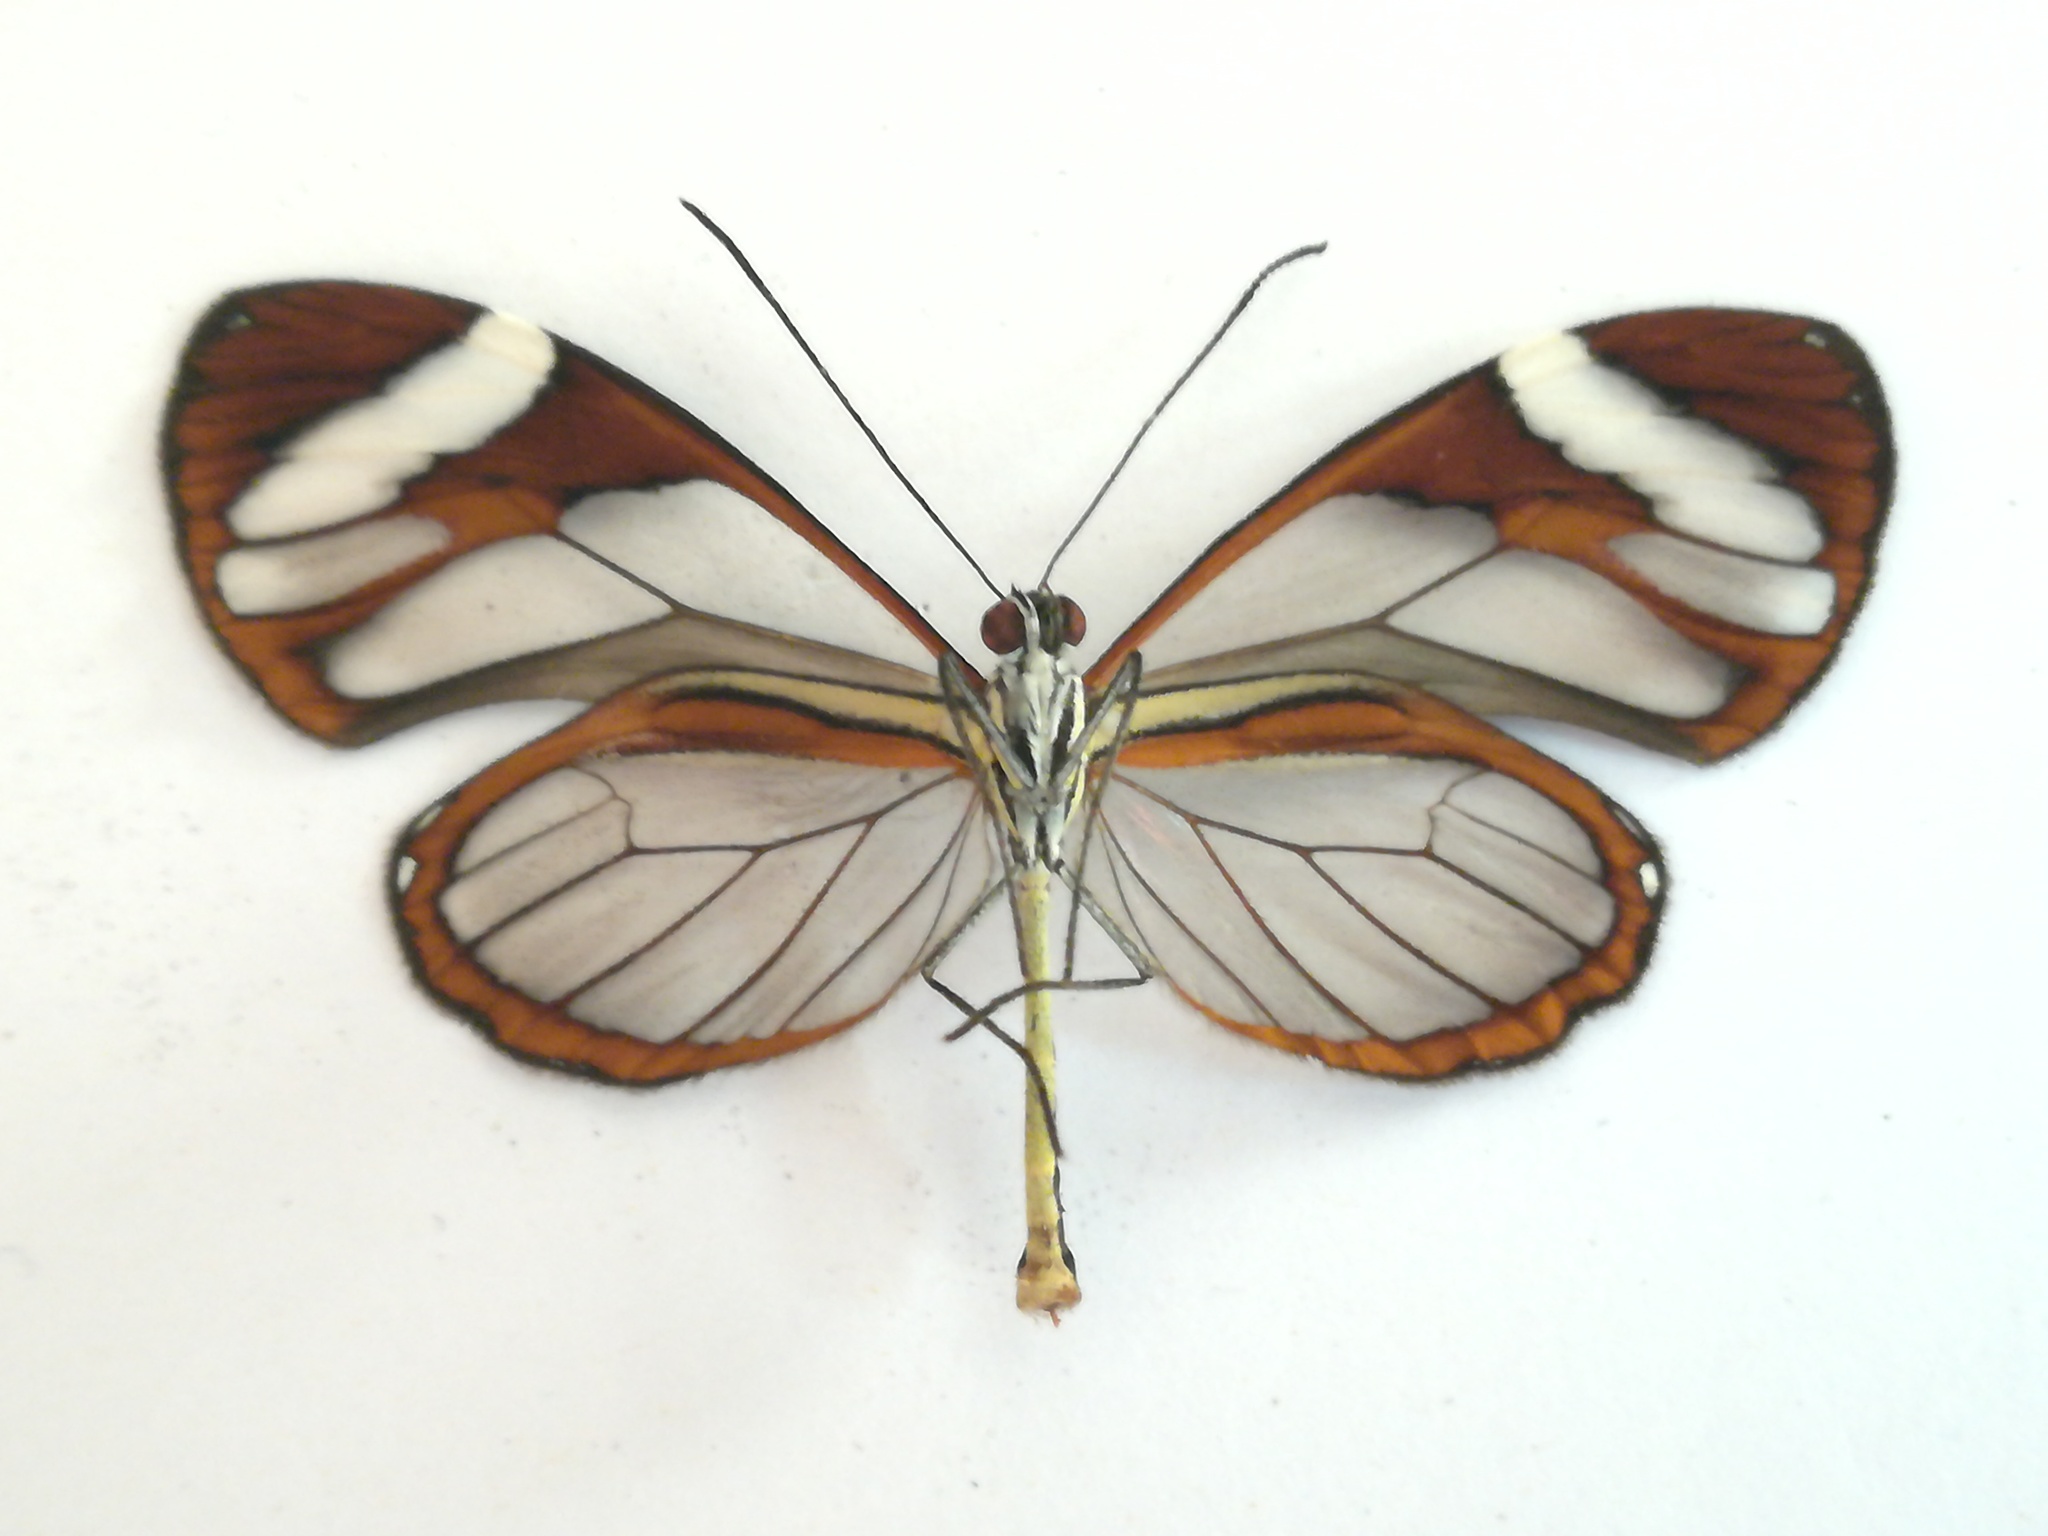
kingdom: Animalia
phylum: Arthropoda
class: Insecta
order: Lepidoptera
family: Nymphalidae
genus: Ithomia
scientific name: Ithomia patilla
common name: Patilla clearwing
